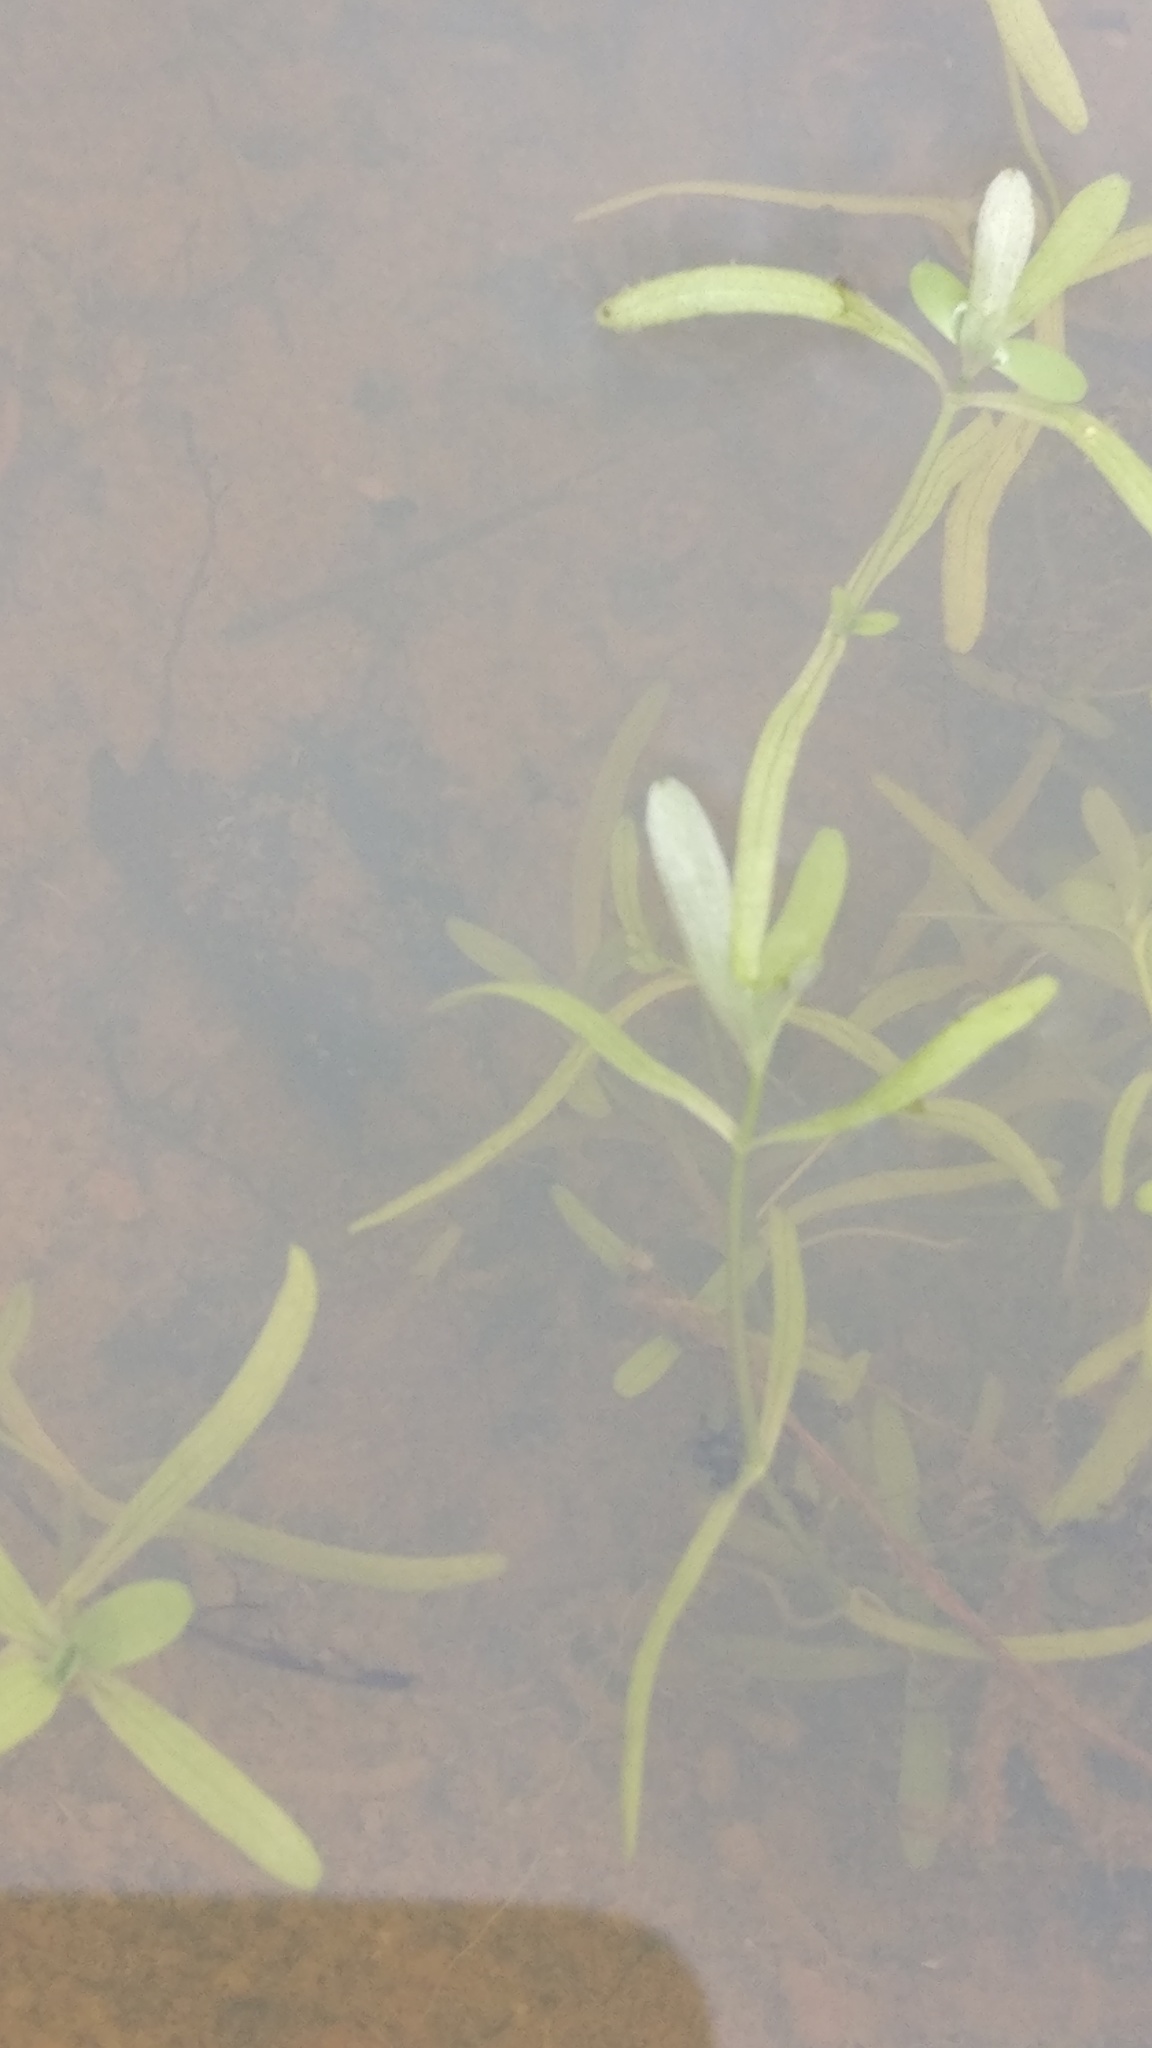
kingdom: Plantae
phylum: Tracheophyta
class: Magnoliopsida
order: Lamiales
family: Plantaginaceae
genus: Callitriche
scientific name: Callitriche
